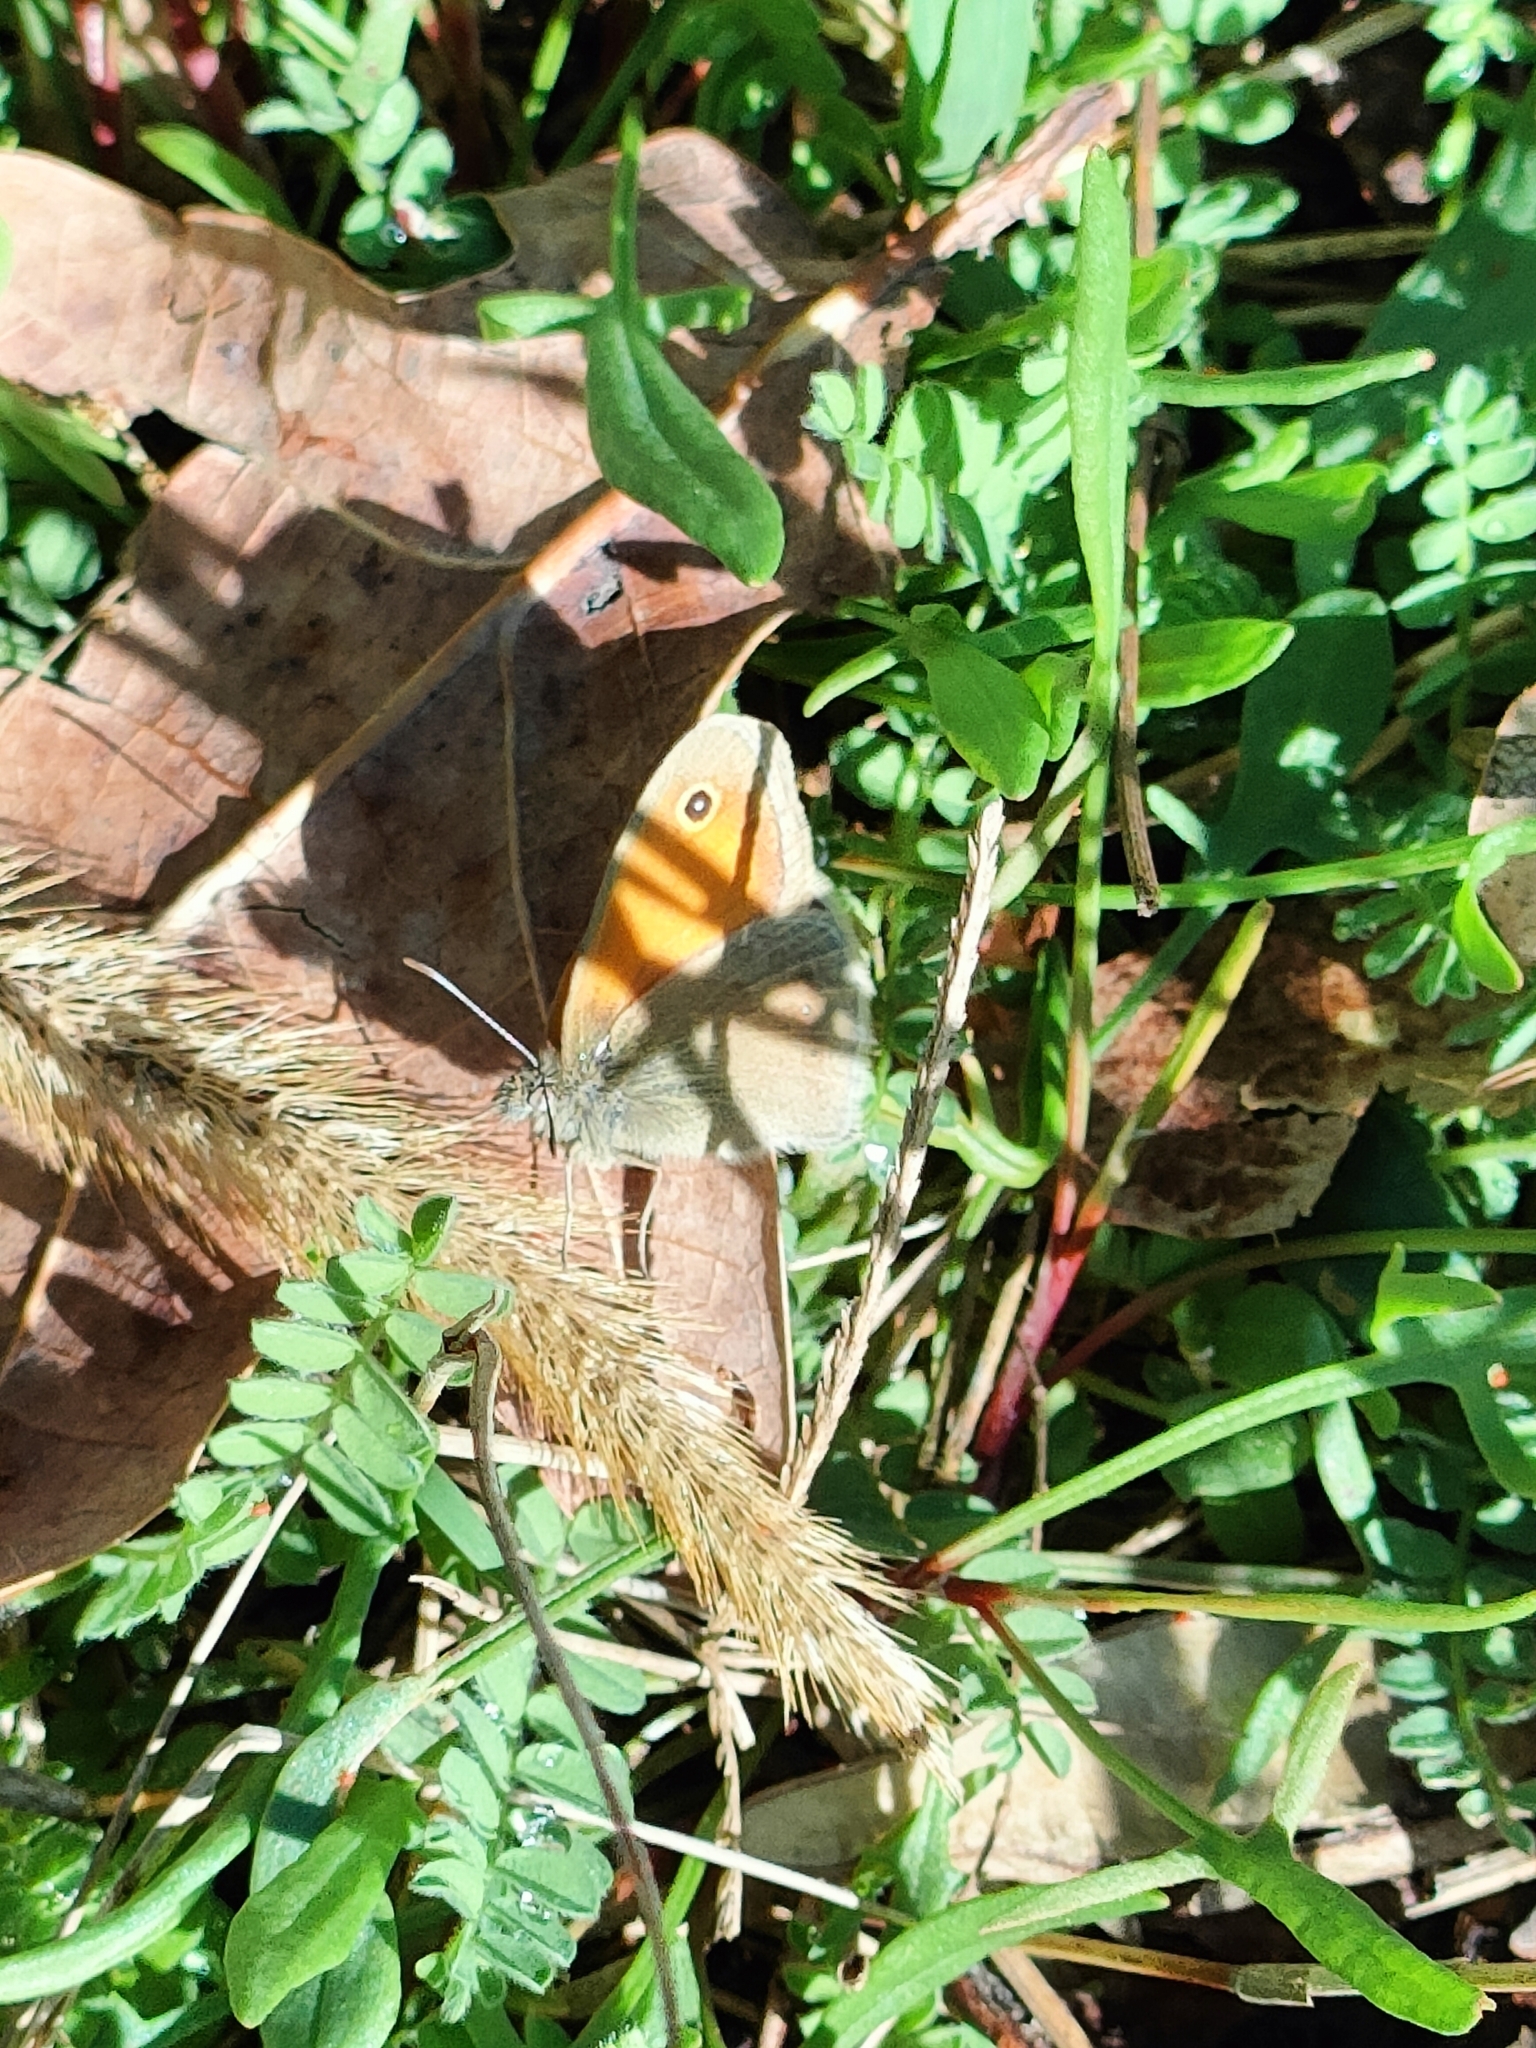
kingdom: Animalia
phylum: Arthropoda
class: Insecta
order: Lepidoptera
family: Nymphalidae
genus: Coenonympha
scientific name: Coenonympha pamphilus
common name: Small heath
